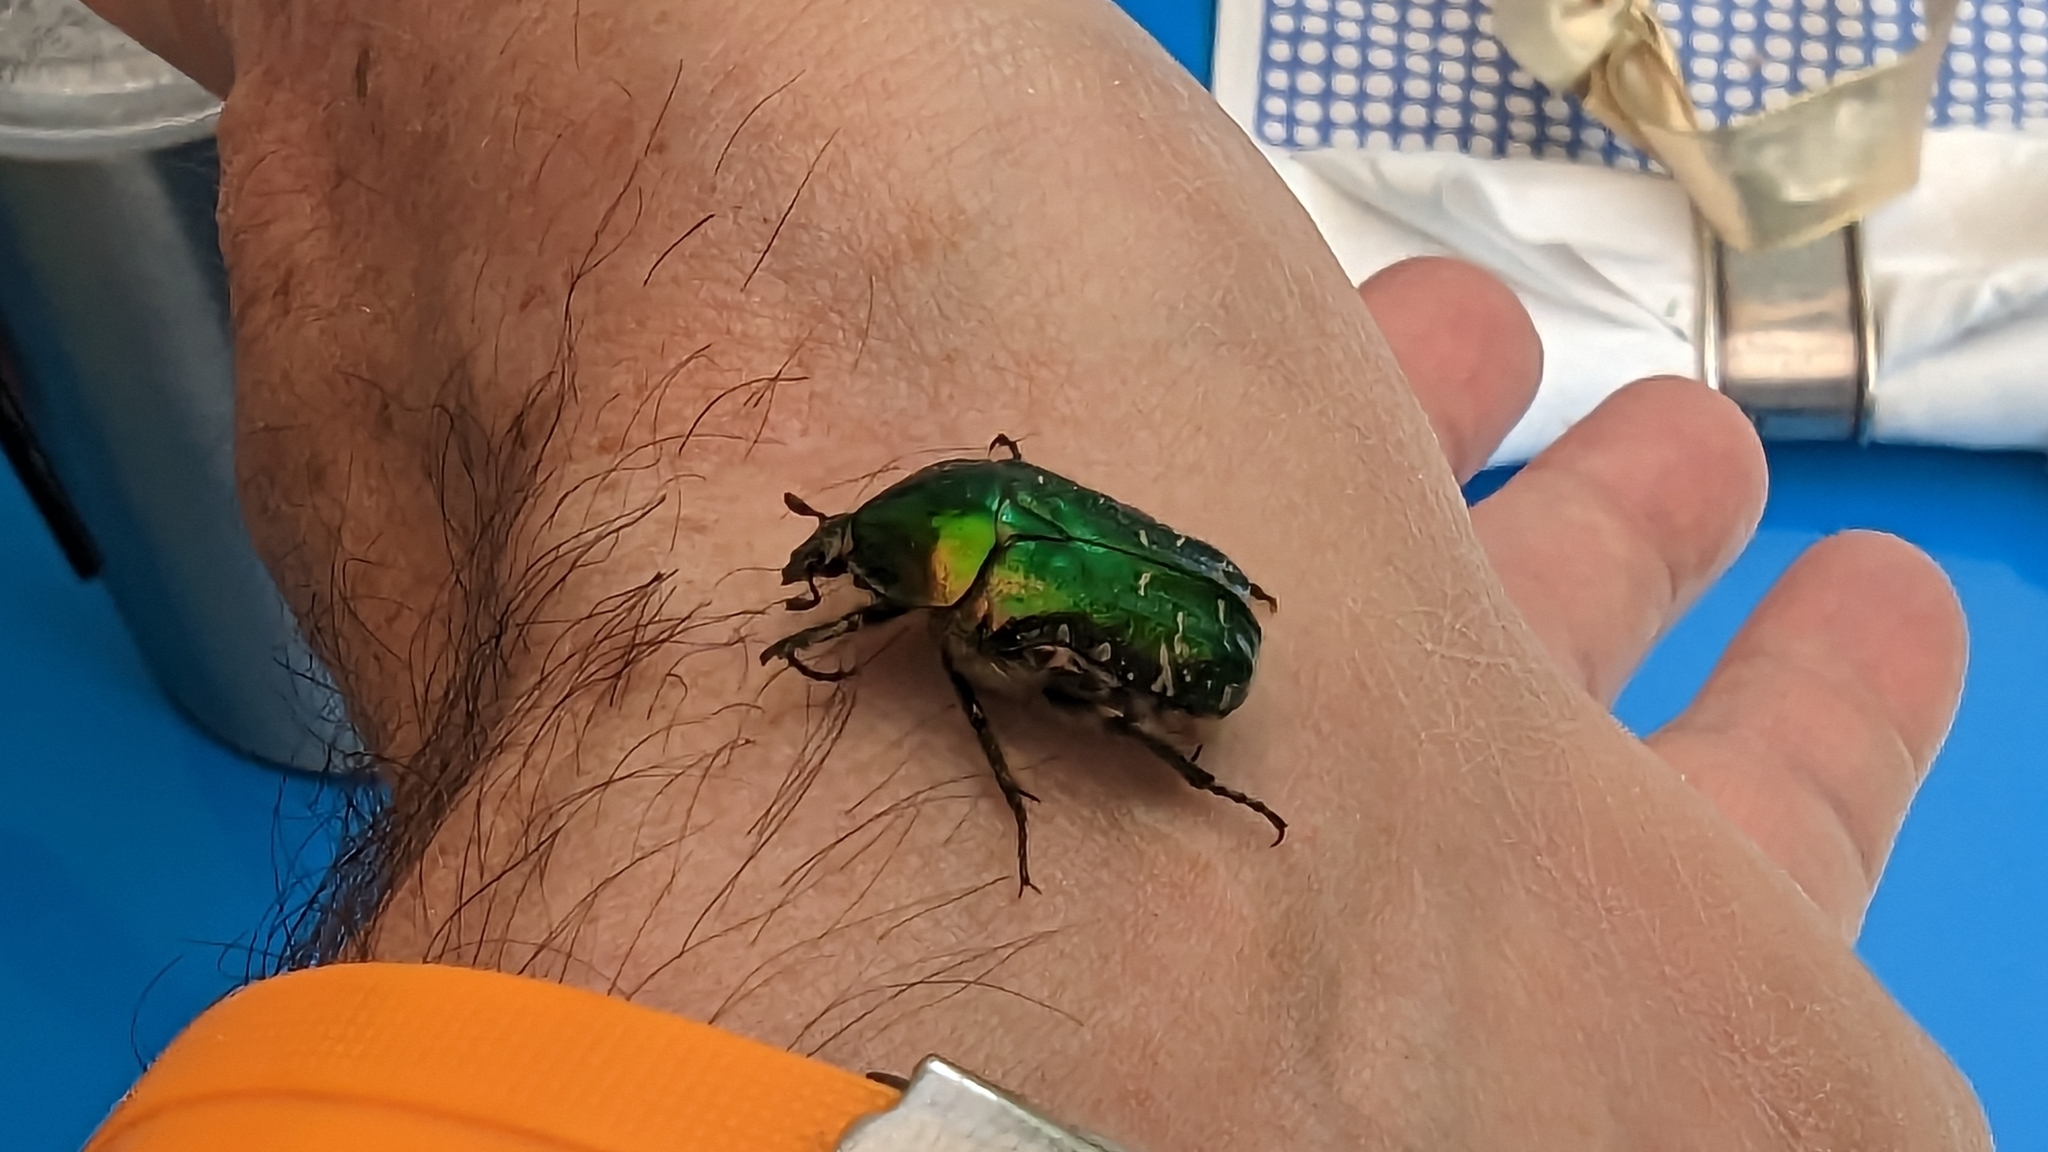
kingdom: Animalia
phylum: Arthropoda
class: Insecta
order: Coleoptera
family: Scarabaeidae
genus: Cetonia
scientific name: Cetonia aurata
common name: Rose chafer
